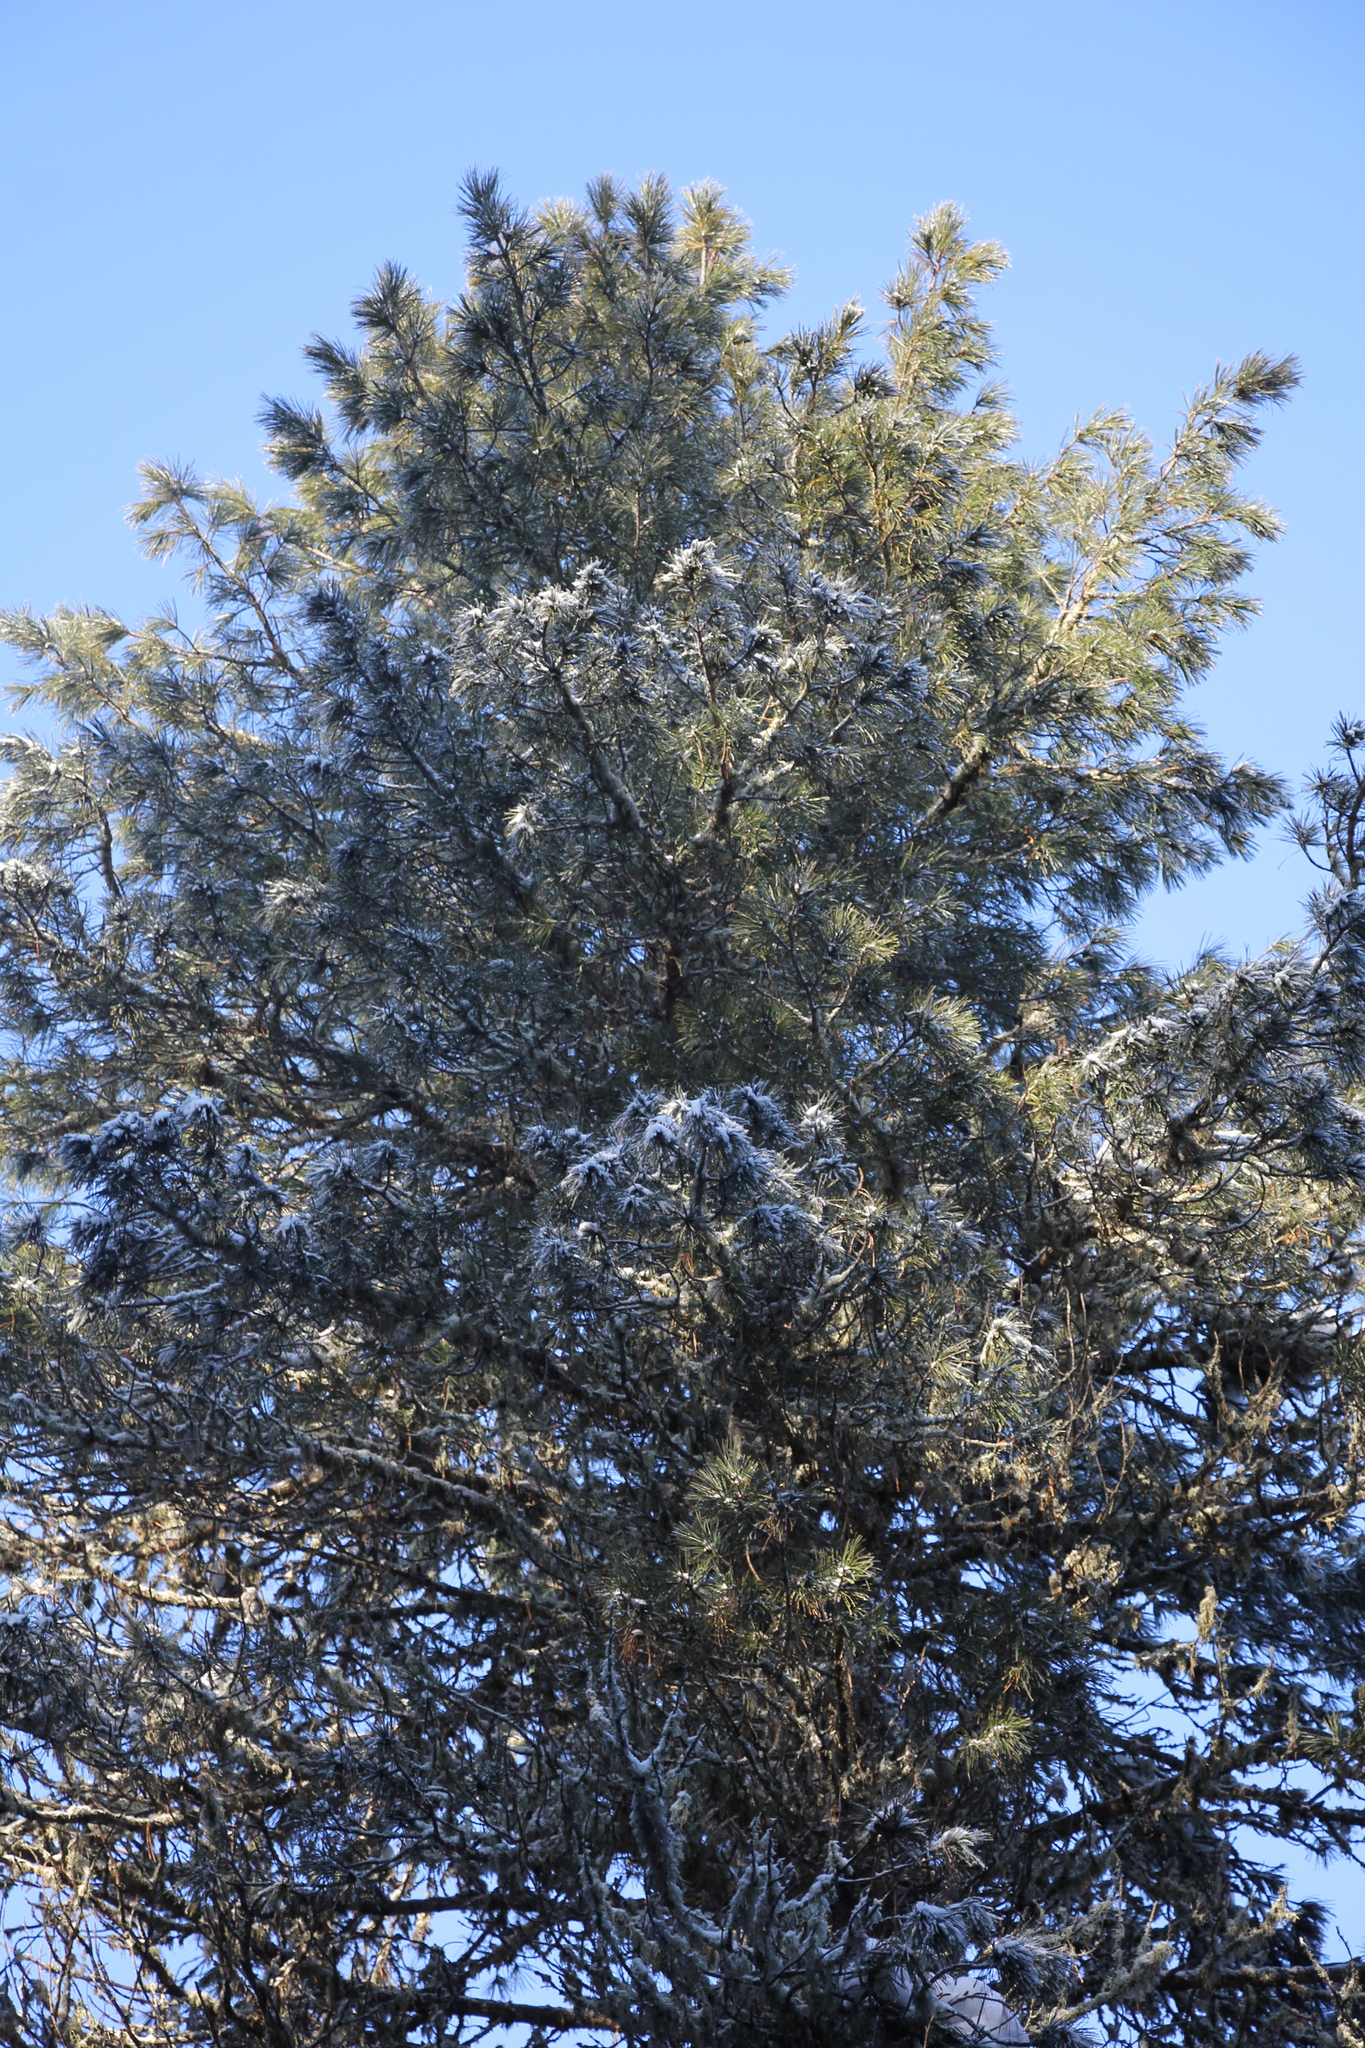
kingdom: Plantae
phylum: Tracheophyta
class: Pinopsida
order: Pinales
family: Pinaceae
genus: Pinus
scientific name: Pinus sibirica
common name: Siberian pine
